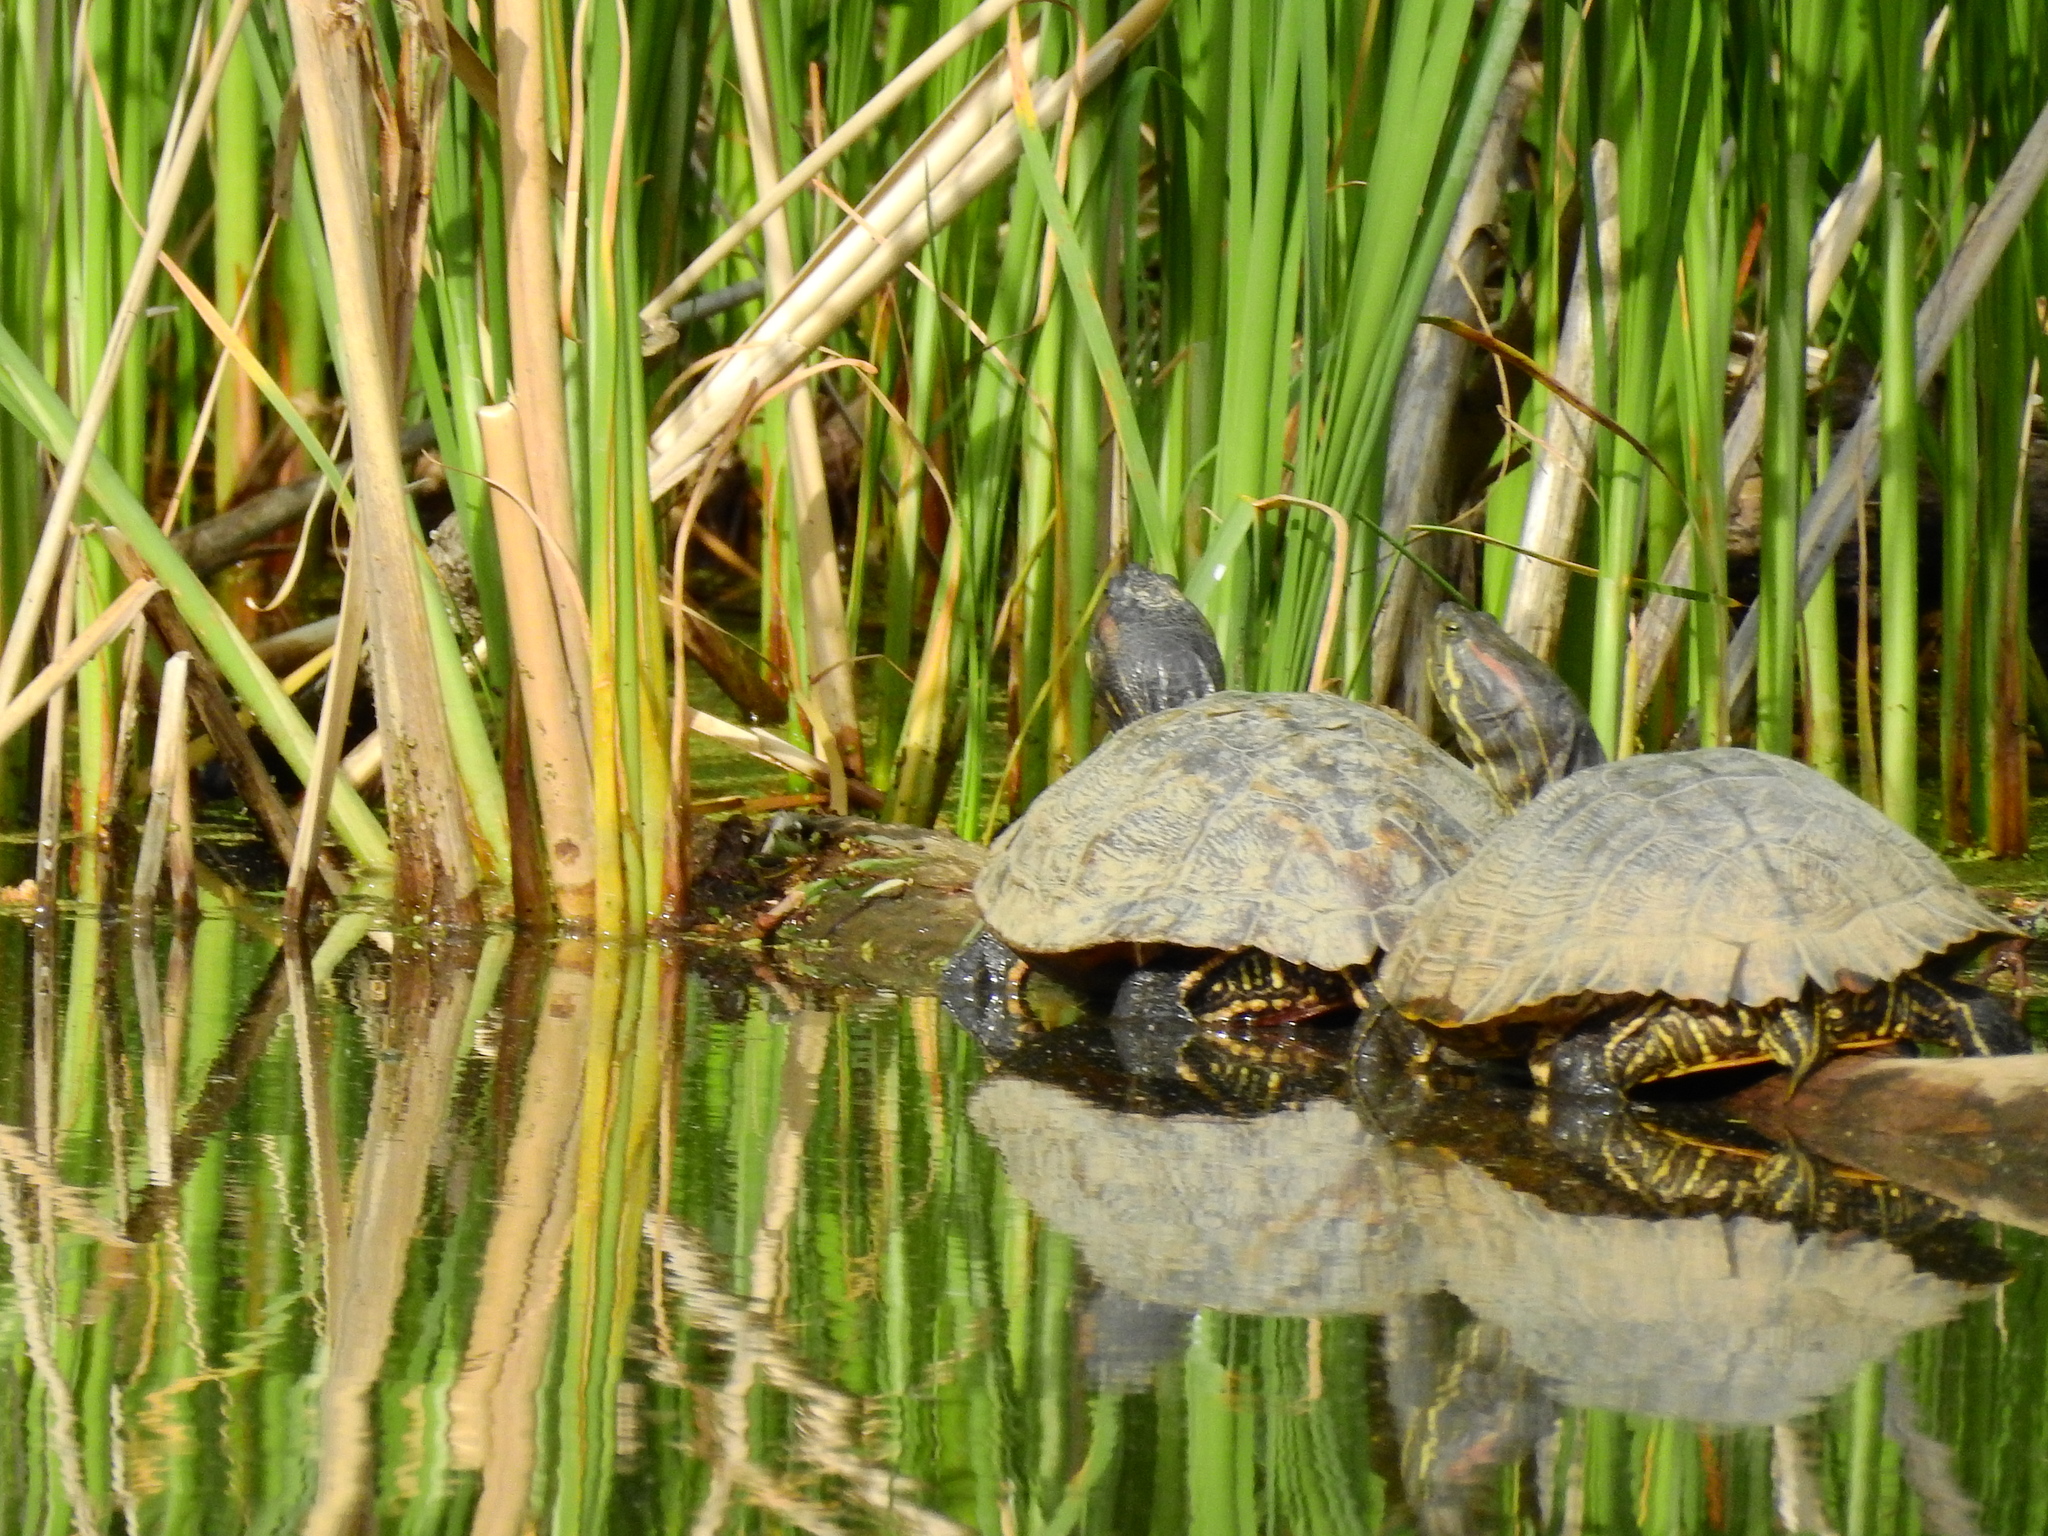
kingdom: Animalia
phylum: Chordata
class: Testudines
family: Emydidae
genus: Trachemys
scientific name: Trachemys scripta
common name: Slider
